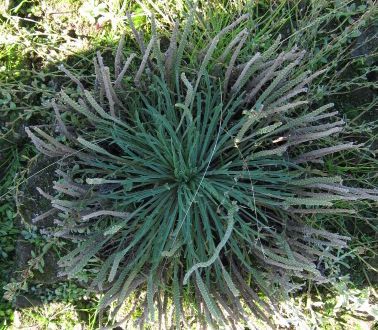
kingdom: Plantae
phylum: Tracheophyta
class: Magnoliopsida
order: Lamiales
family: Plantaginaceae
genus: Plantago
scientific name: Plantago coronopus
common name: Buck's-horn plantain
